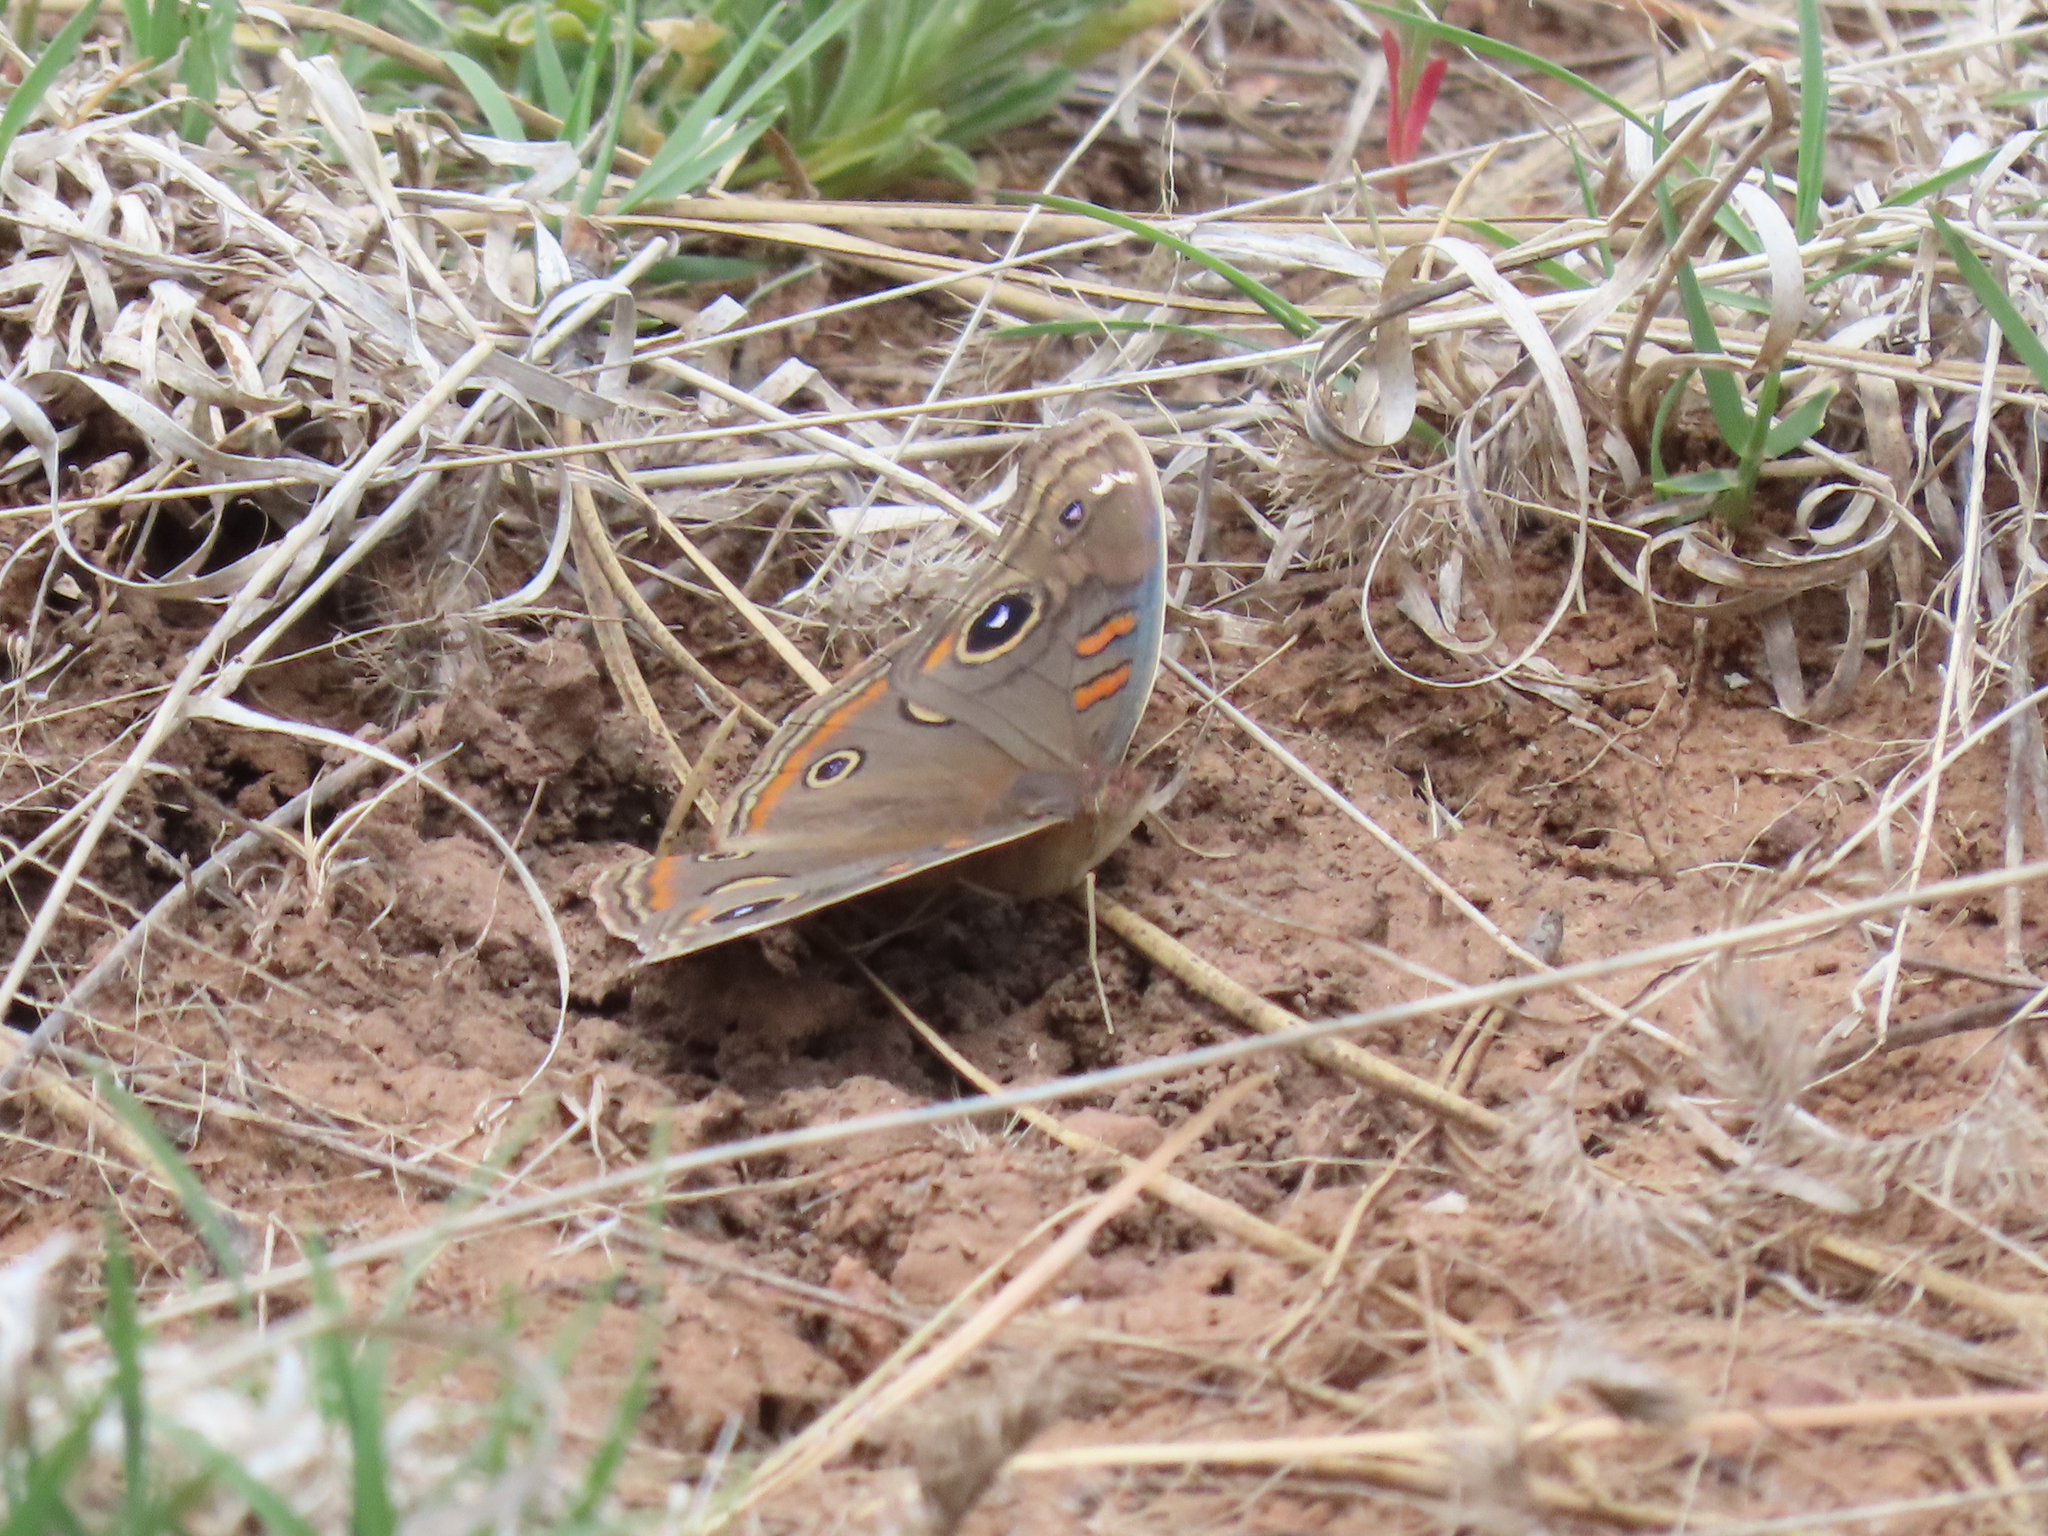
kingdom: Animalia
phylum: Arthropoda
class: Insecta
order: Lepidoptera
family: Nymphalidae
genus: Junonia
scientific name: Junonia nigrosuffusa
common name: Dark buckeye
